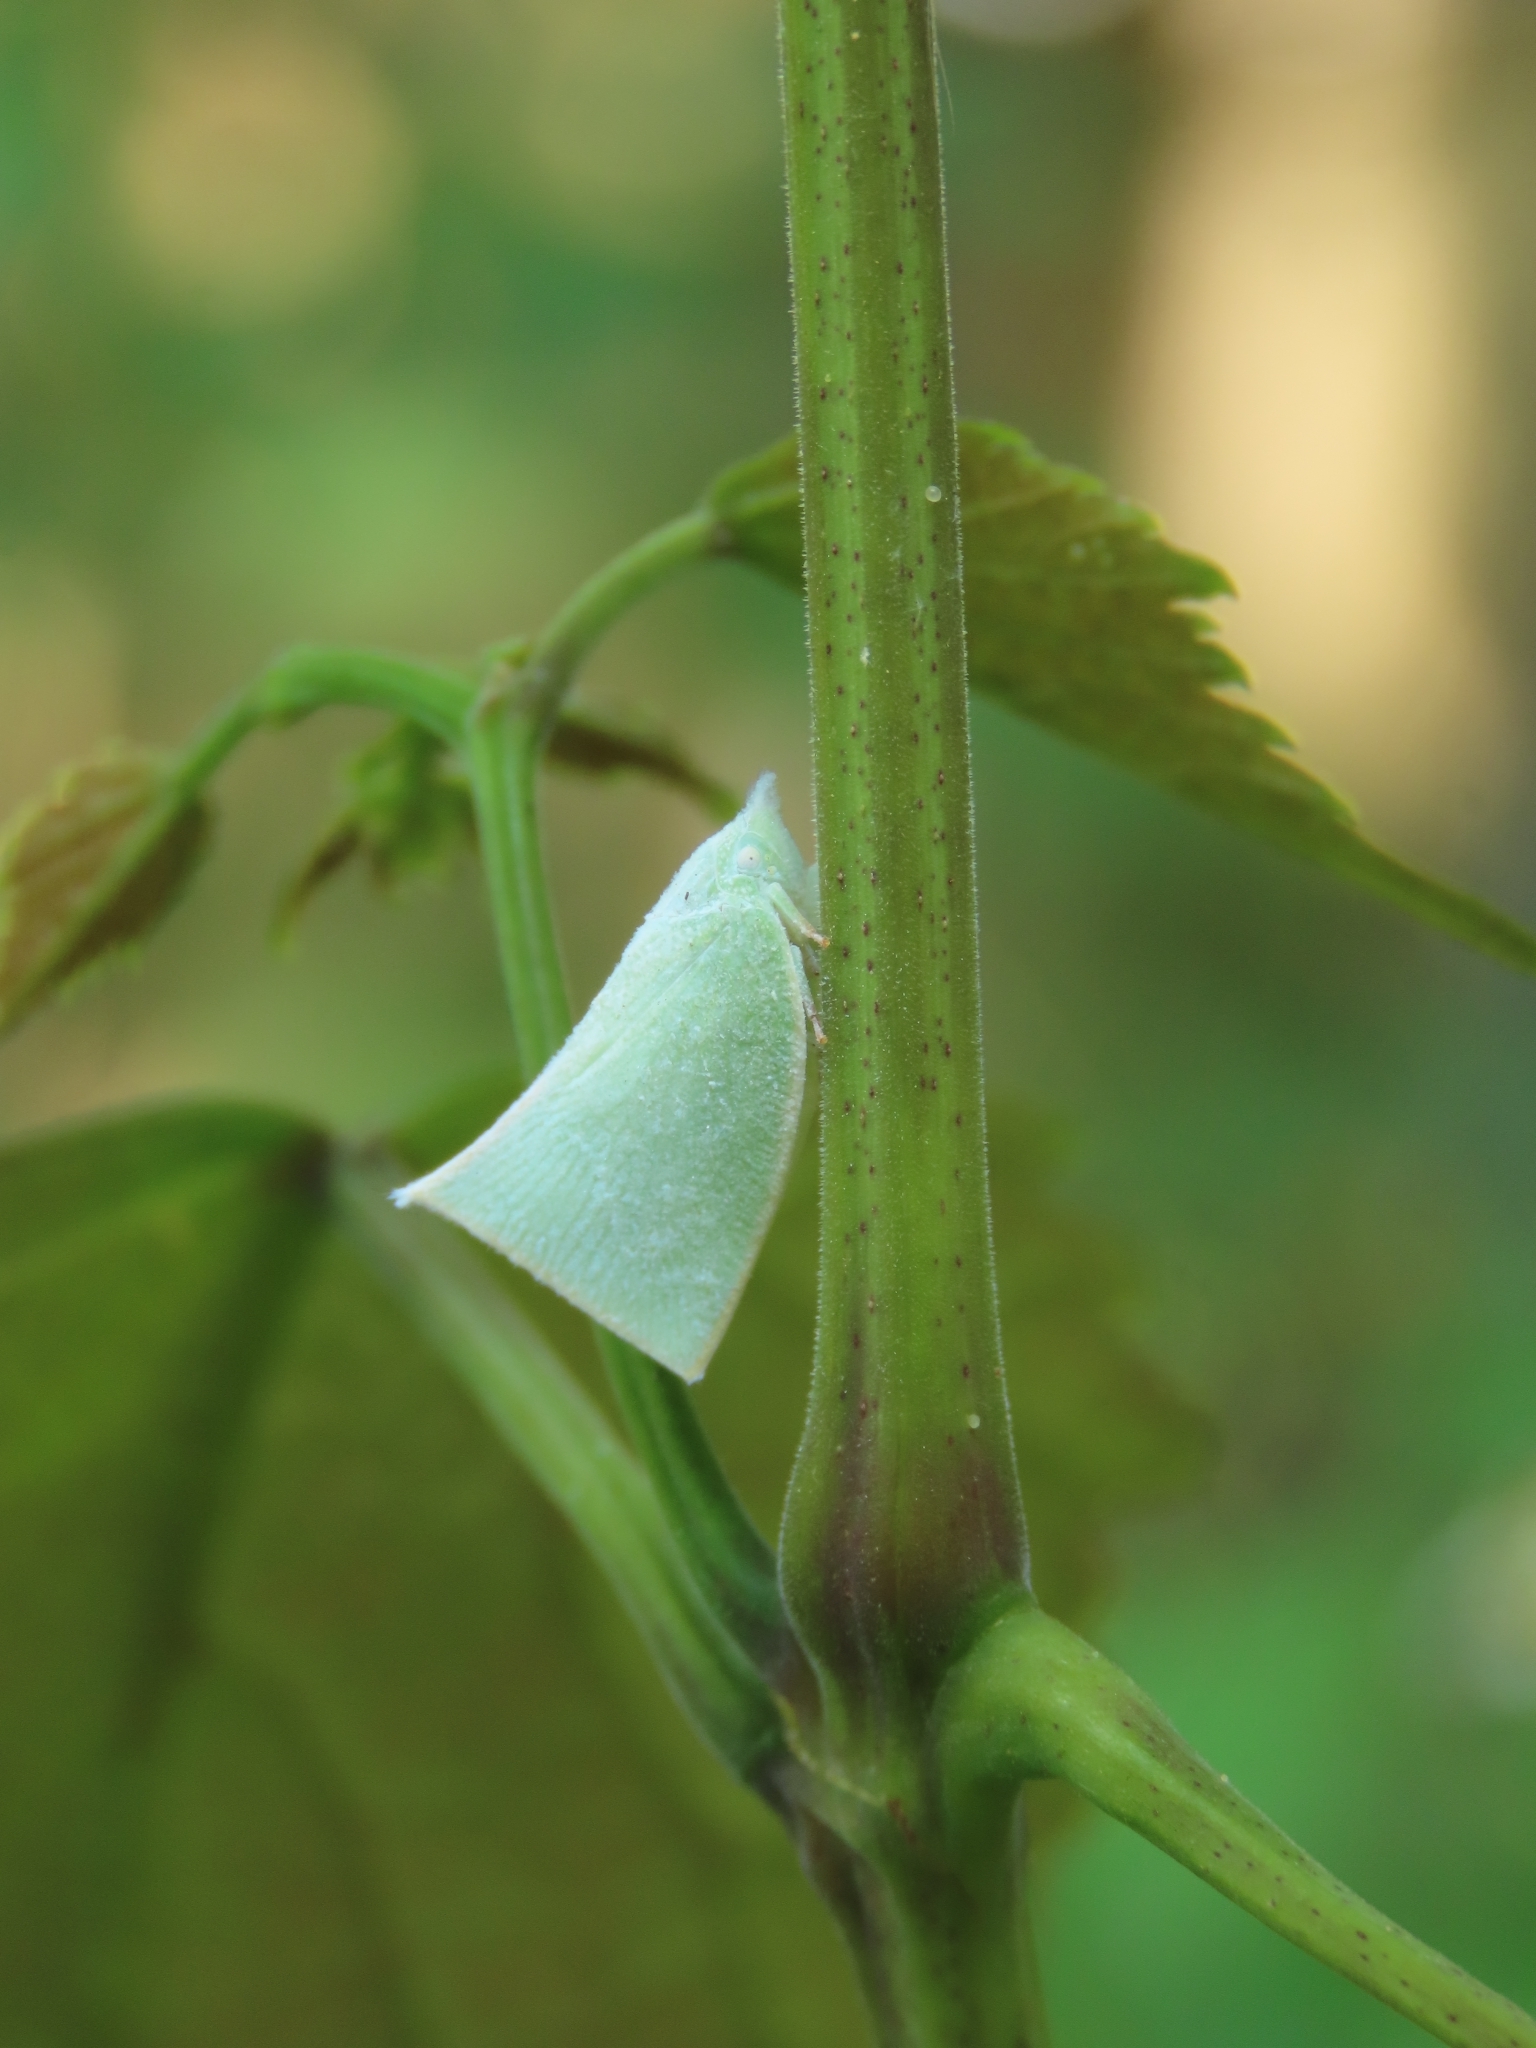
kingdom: Animalia
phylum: Arthropoda
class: Insecta
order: Hemiptera
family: Flatidae
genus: Phylliana
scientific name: Phylliana alba
